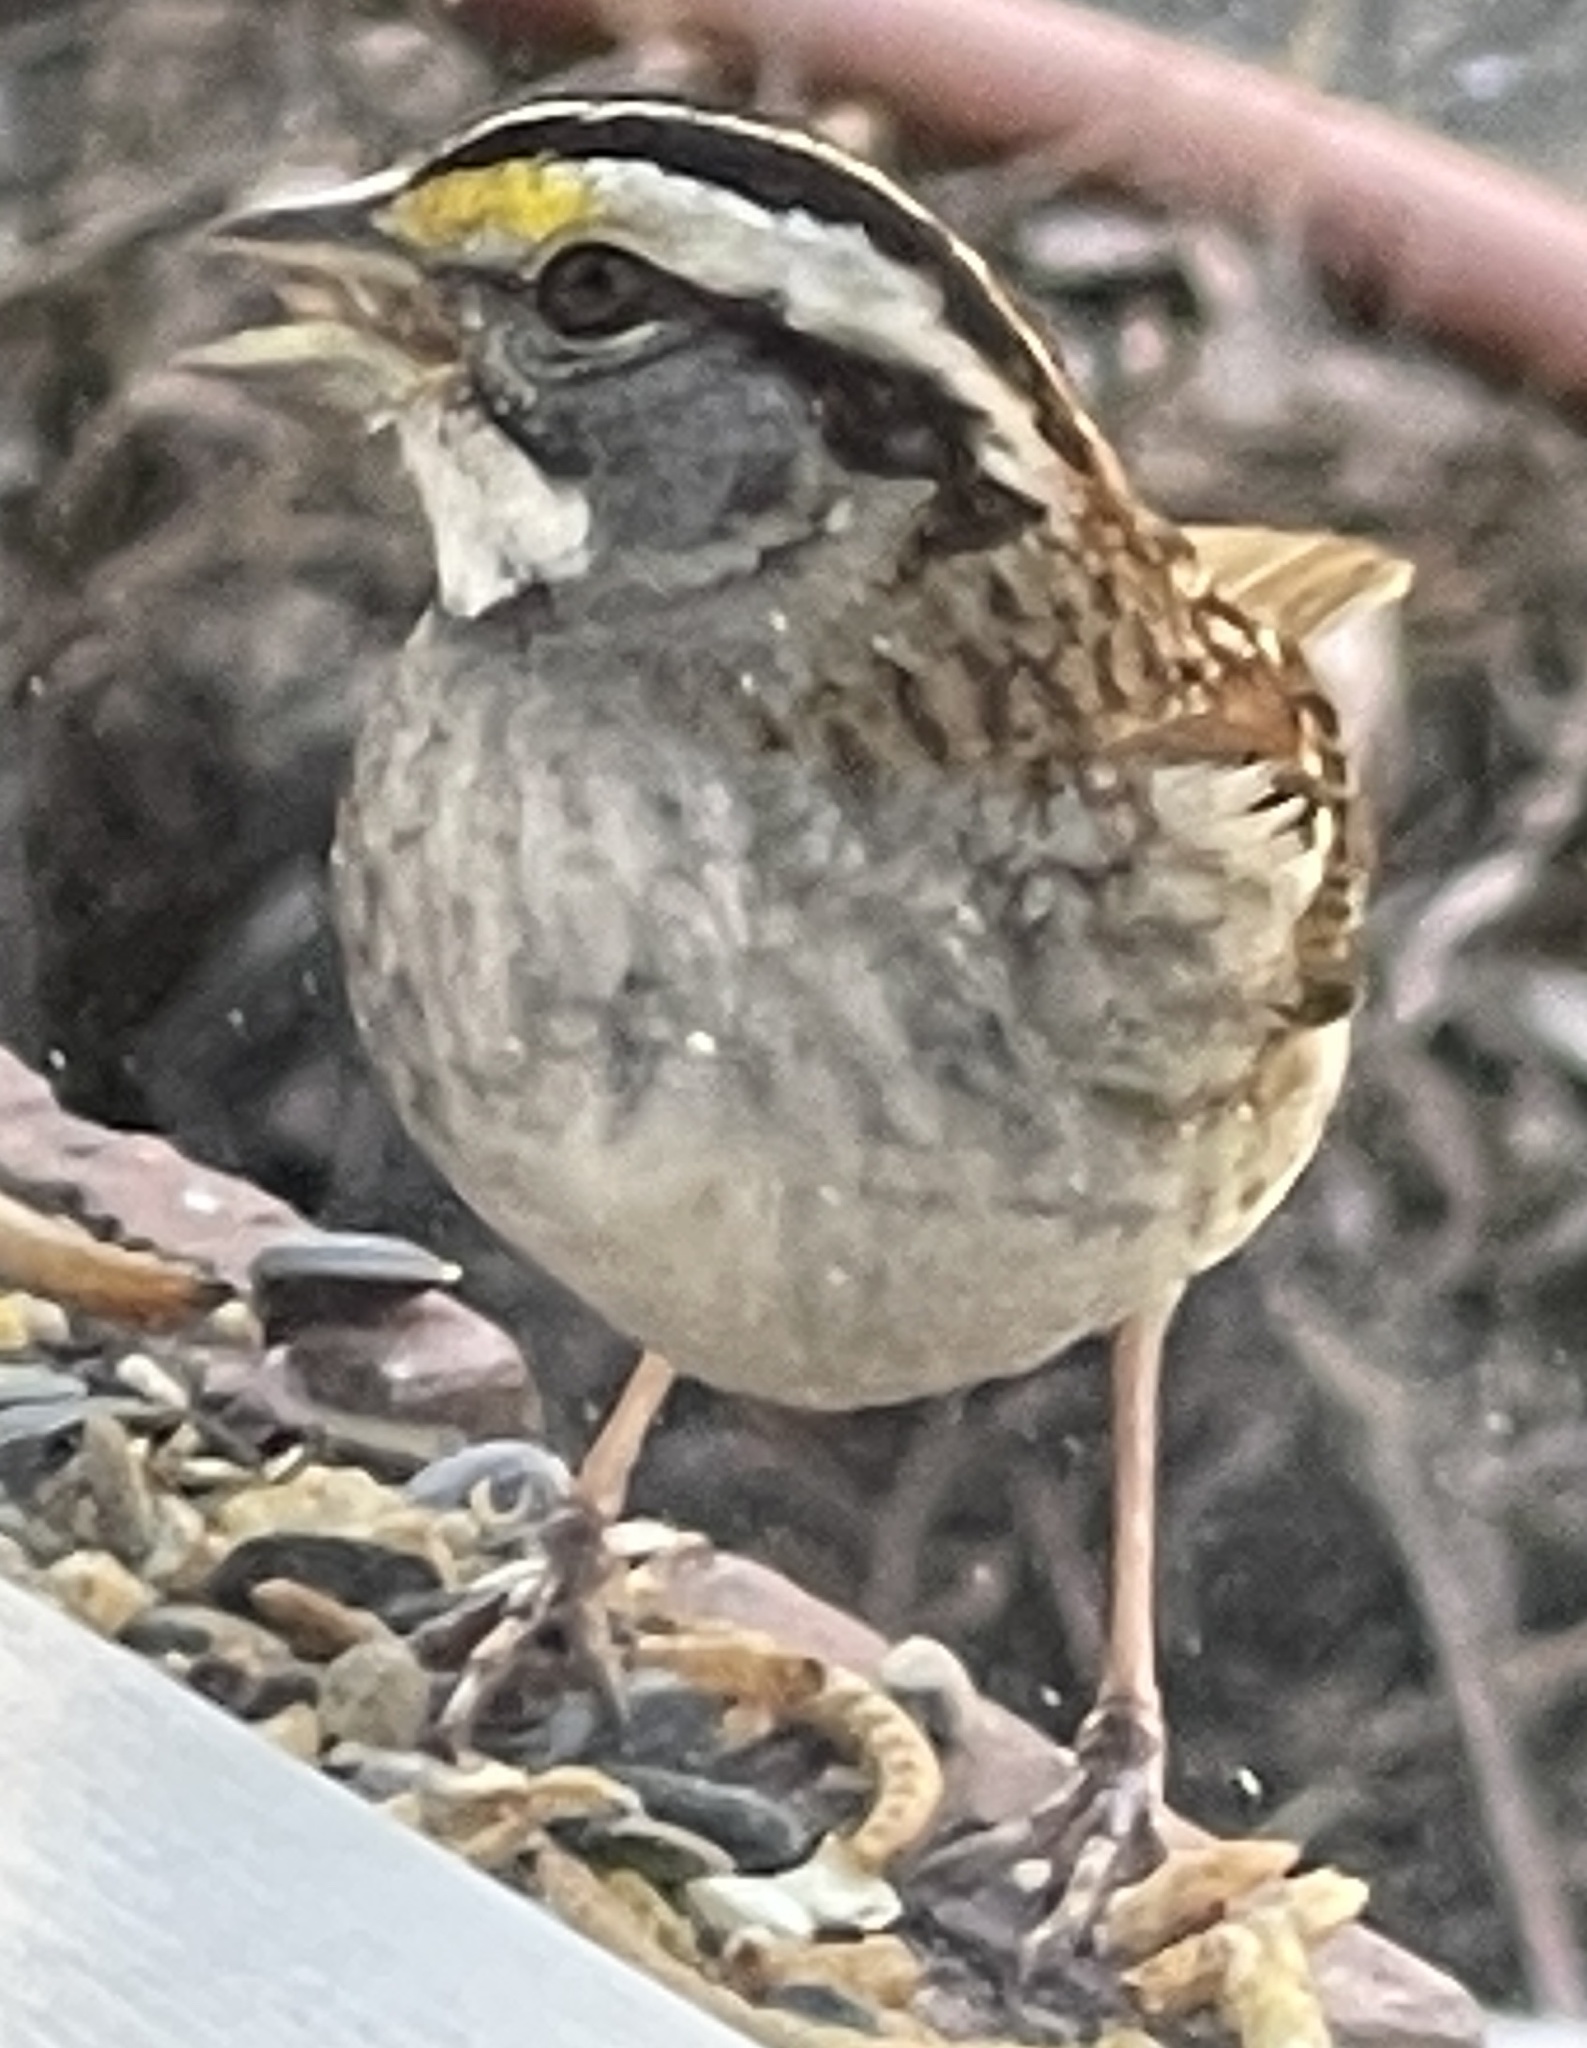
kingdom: Animalia
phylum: Chordata
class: Aves
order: Passeriformes
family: Passerellidae
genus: Zonotrichia
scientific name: Zonotrichia albicollis
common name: White-throated sparrow
